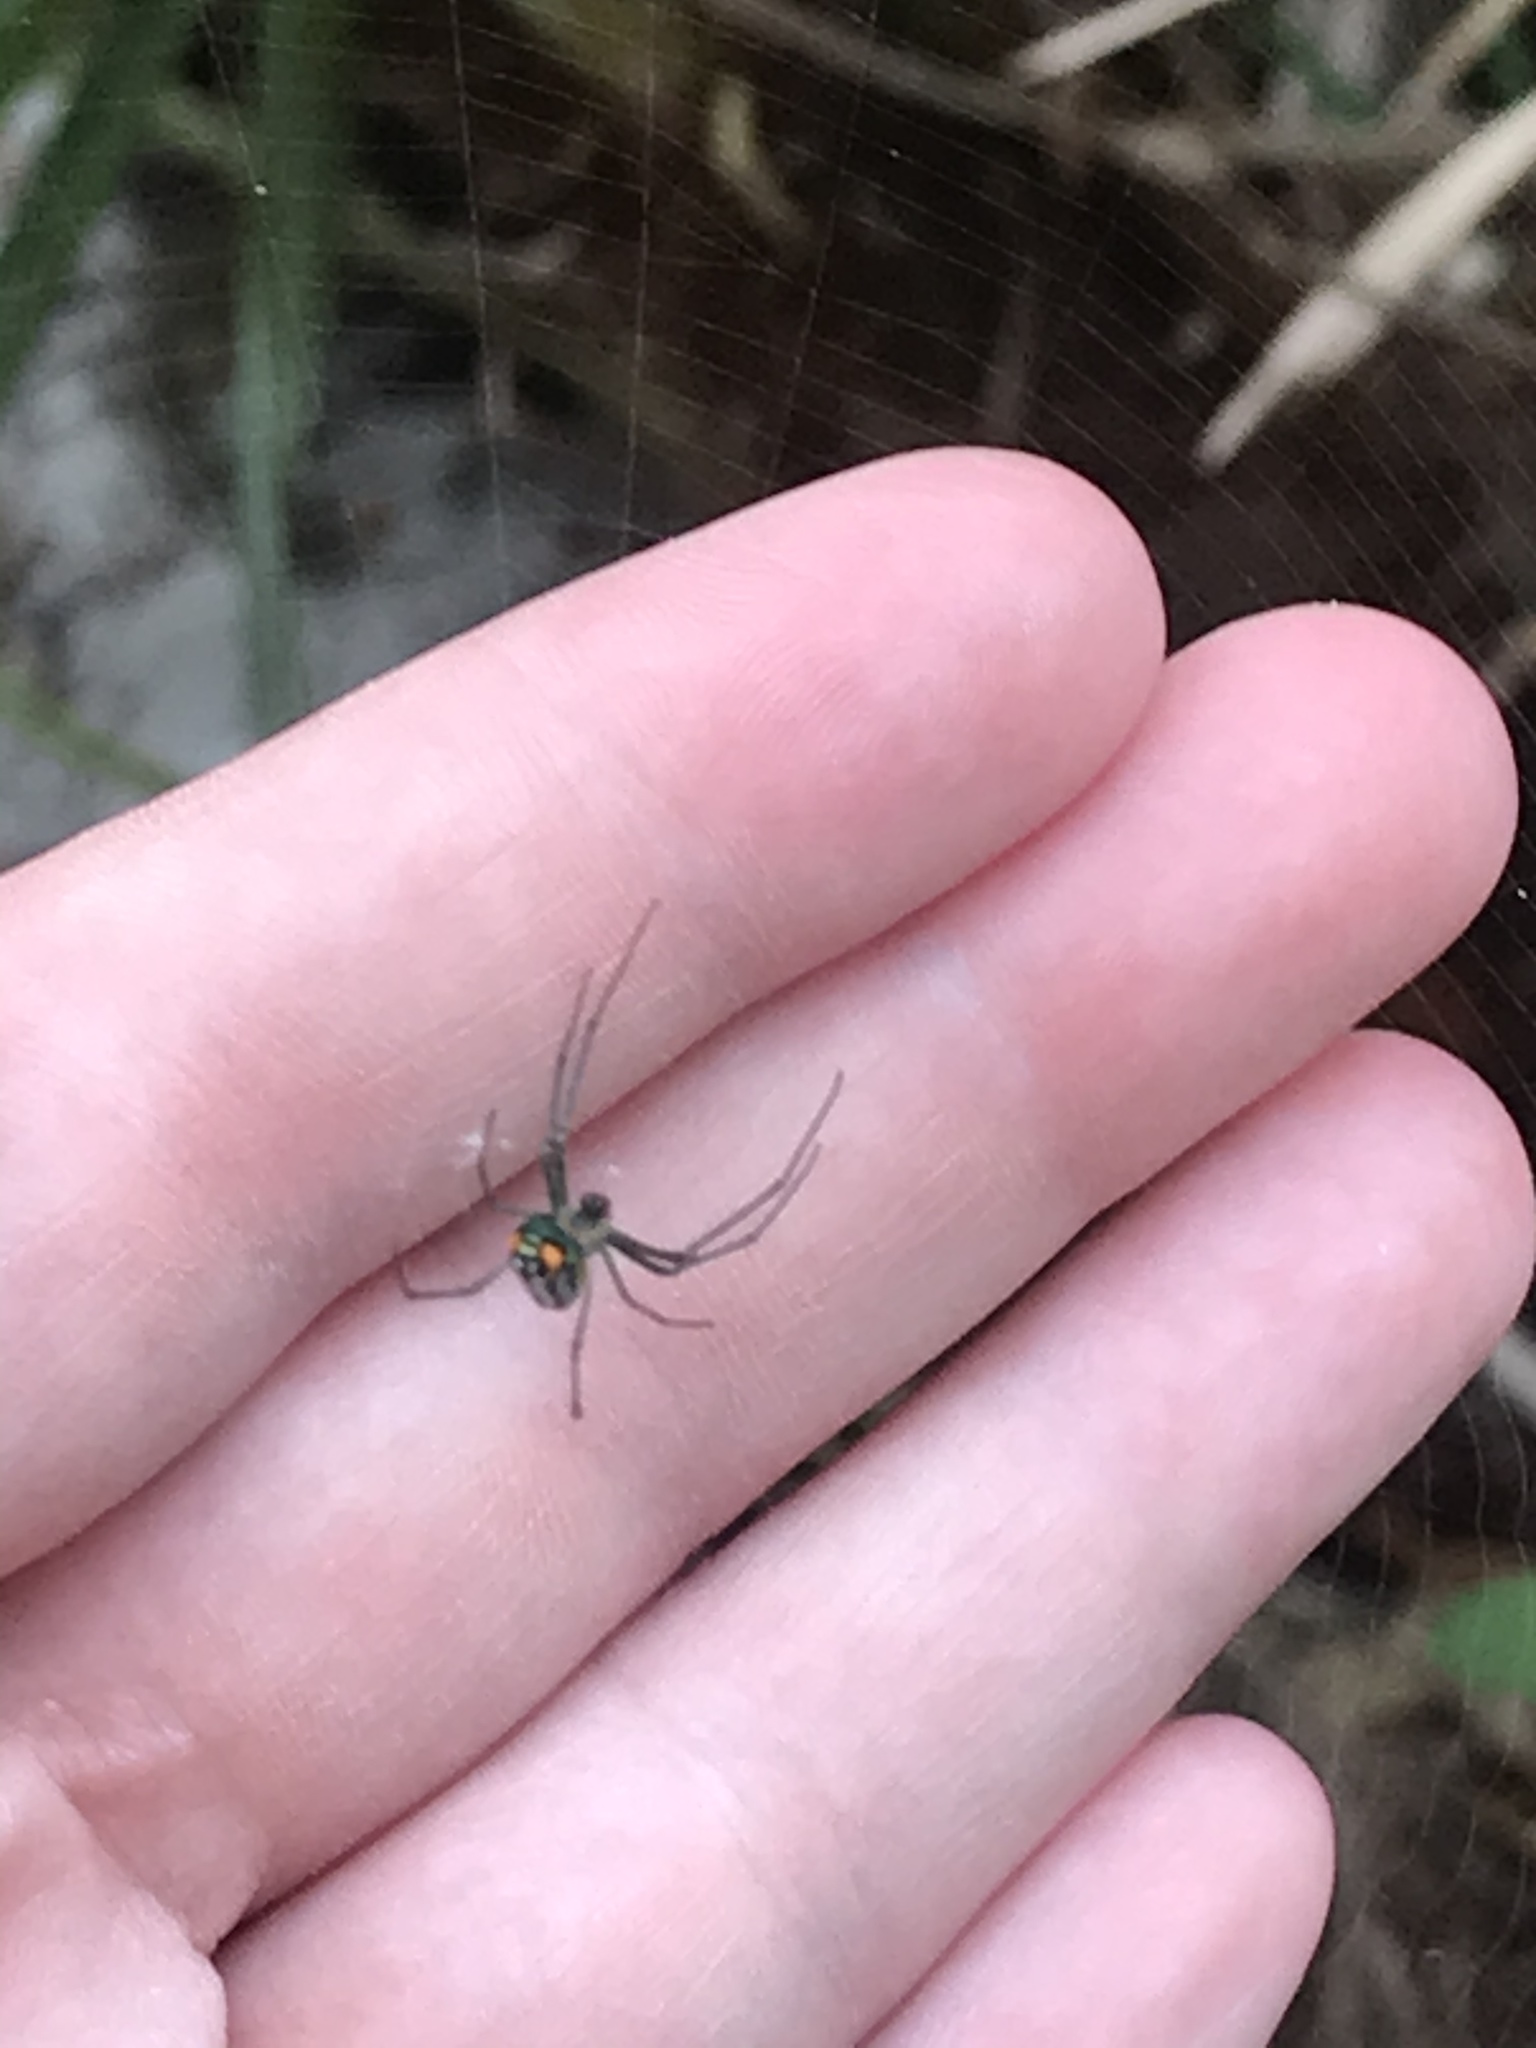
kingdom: Animalia
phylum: Arthropoda
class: Arachnida
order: Araneae
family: Tetragnathidae
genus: Leucauge
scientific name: Leucauge argyrobapta
